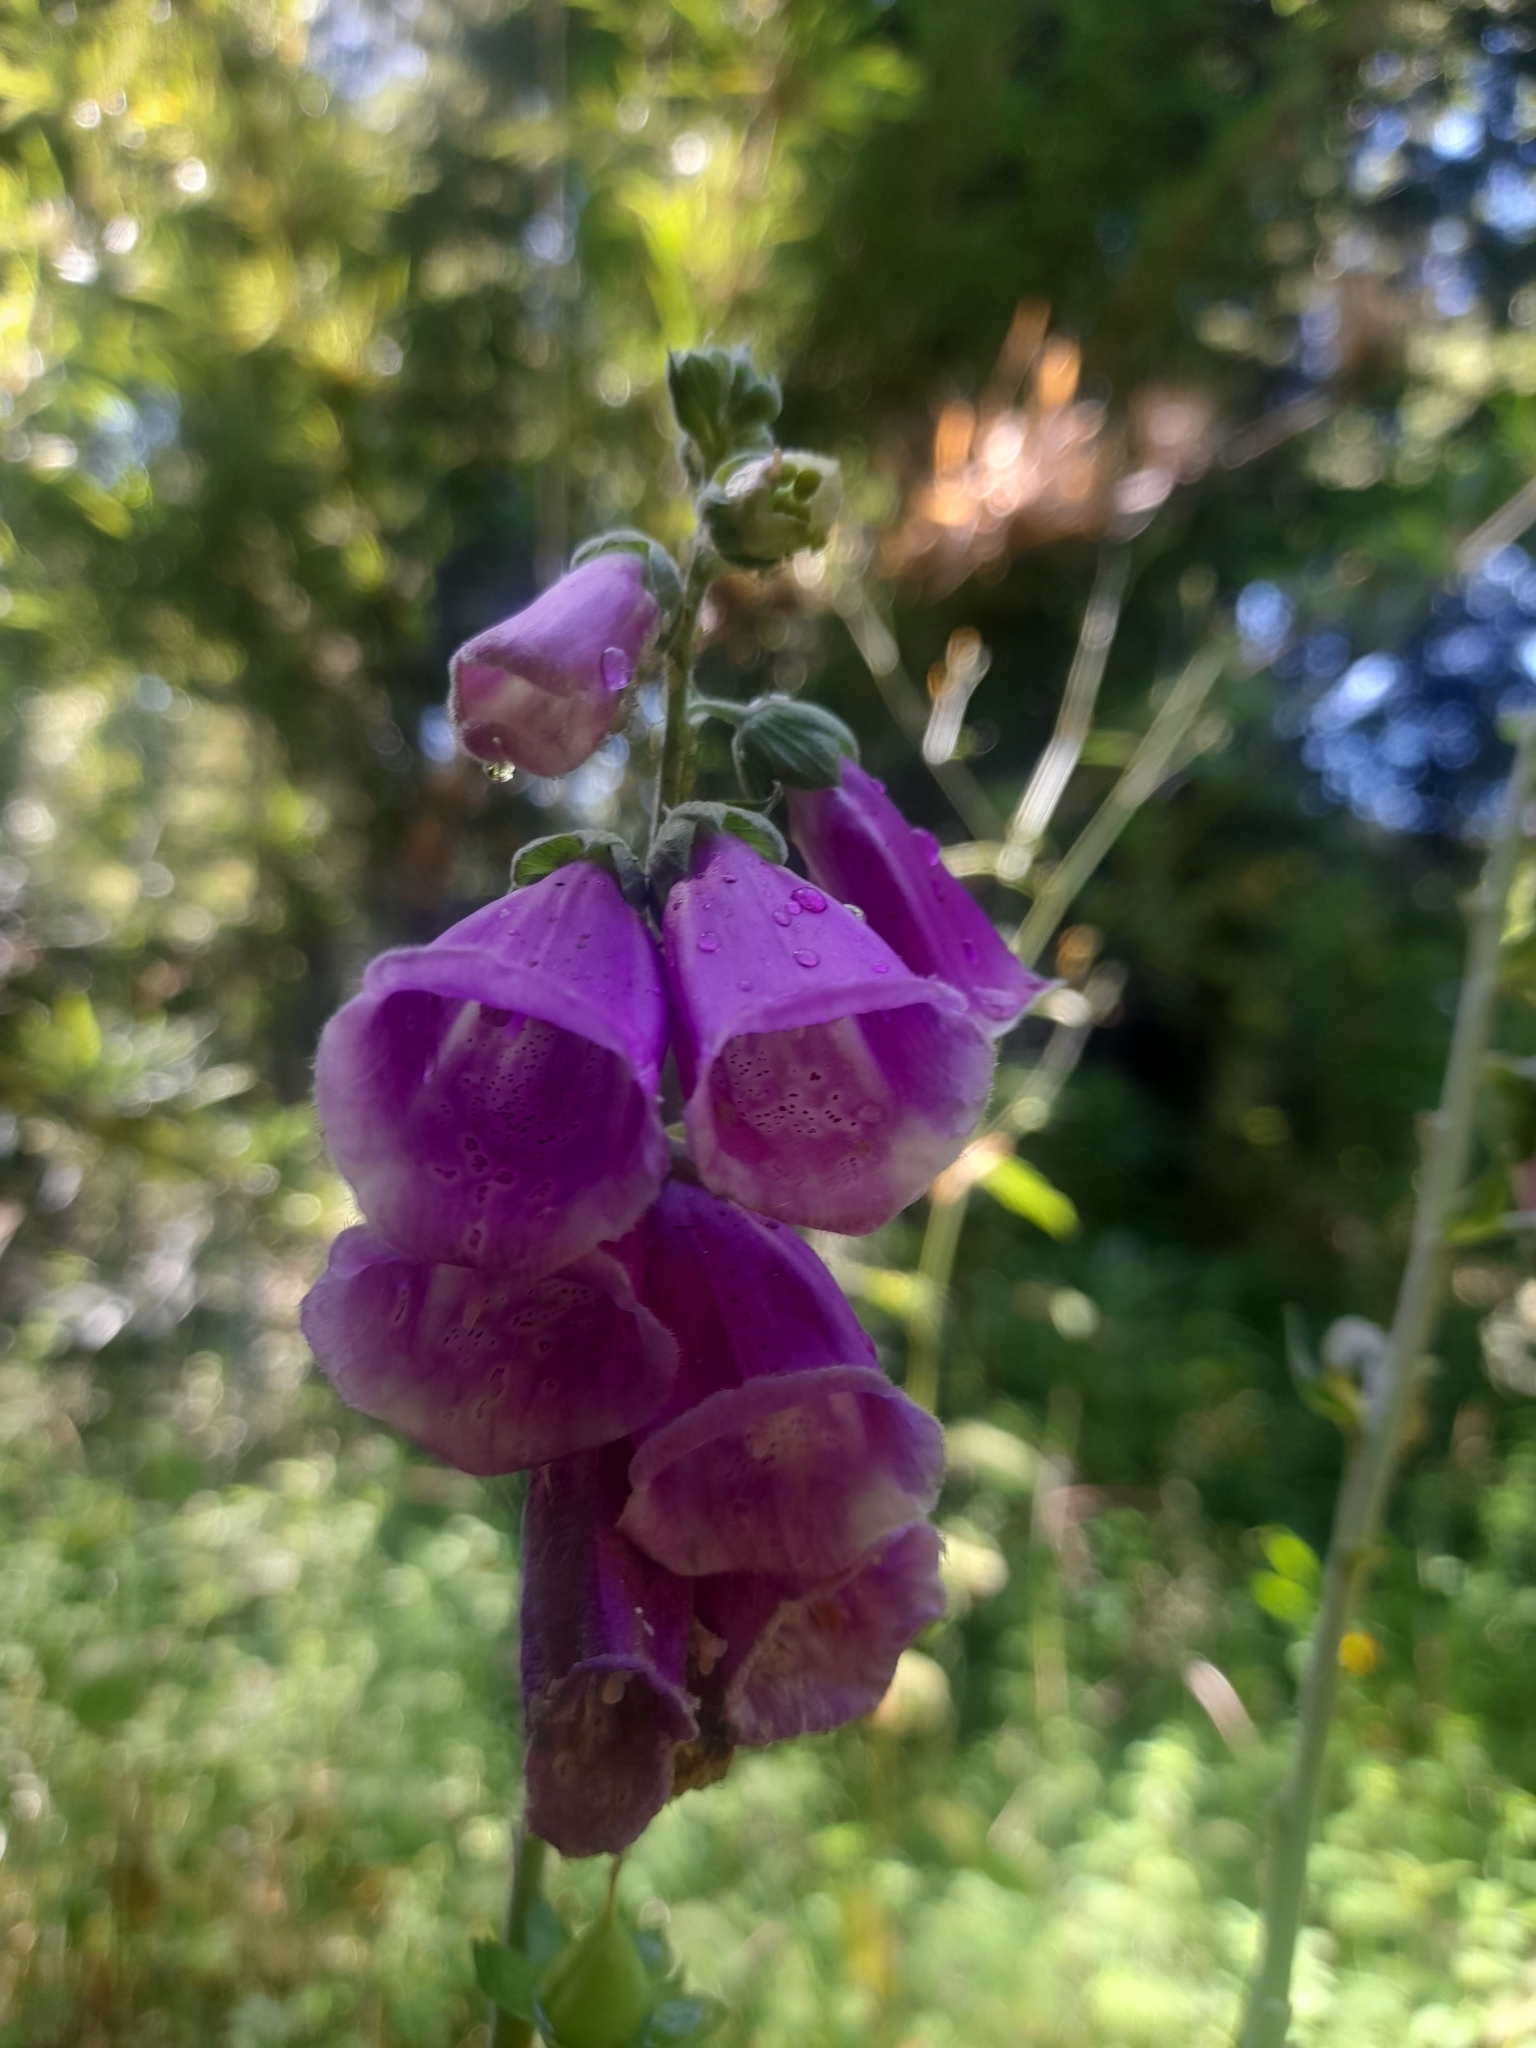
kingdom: Plantae
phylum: Tracheophyta
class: Magnoliopsida
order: Lamiales
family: Plantaginaceae
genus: Digitalis
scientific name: Digitalis purpurea
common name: Foxglove
